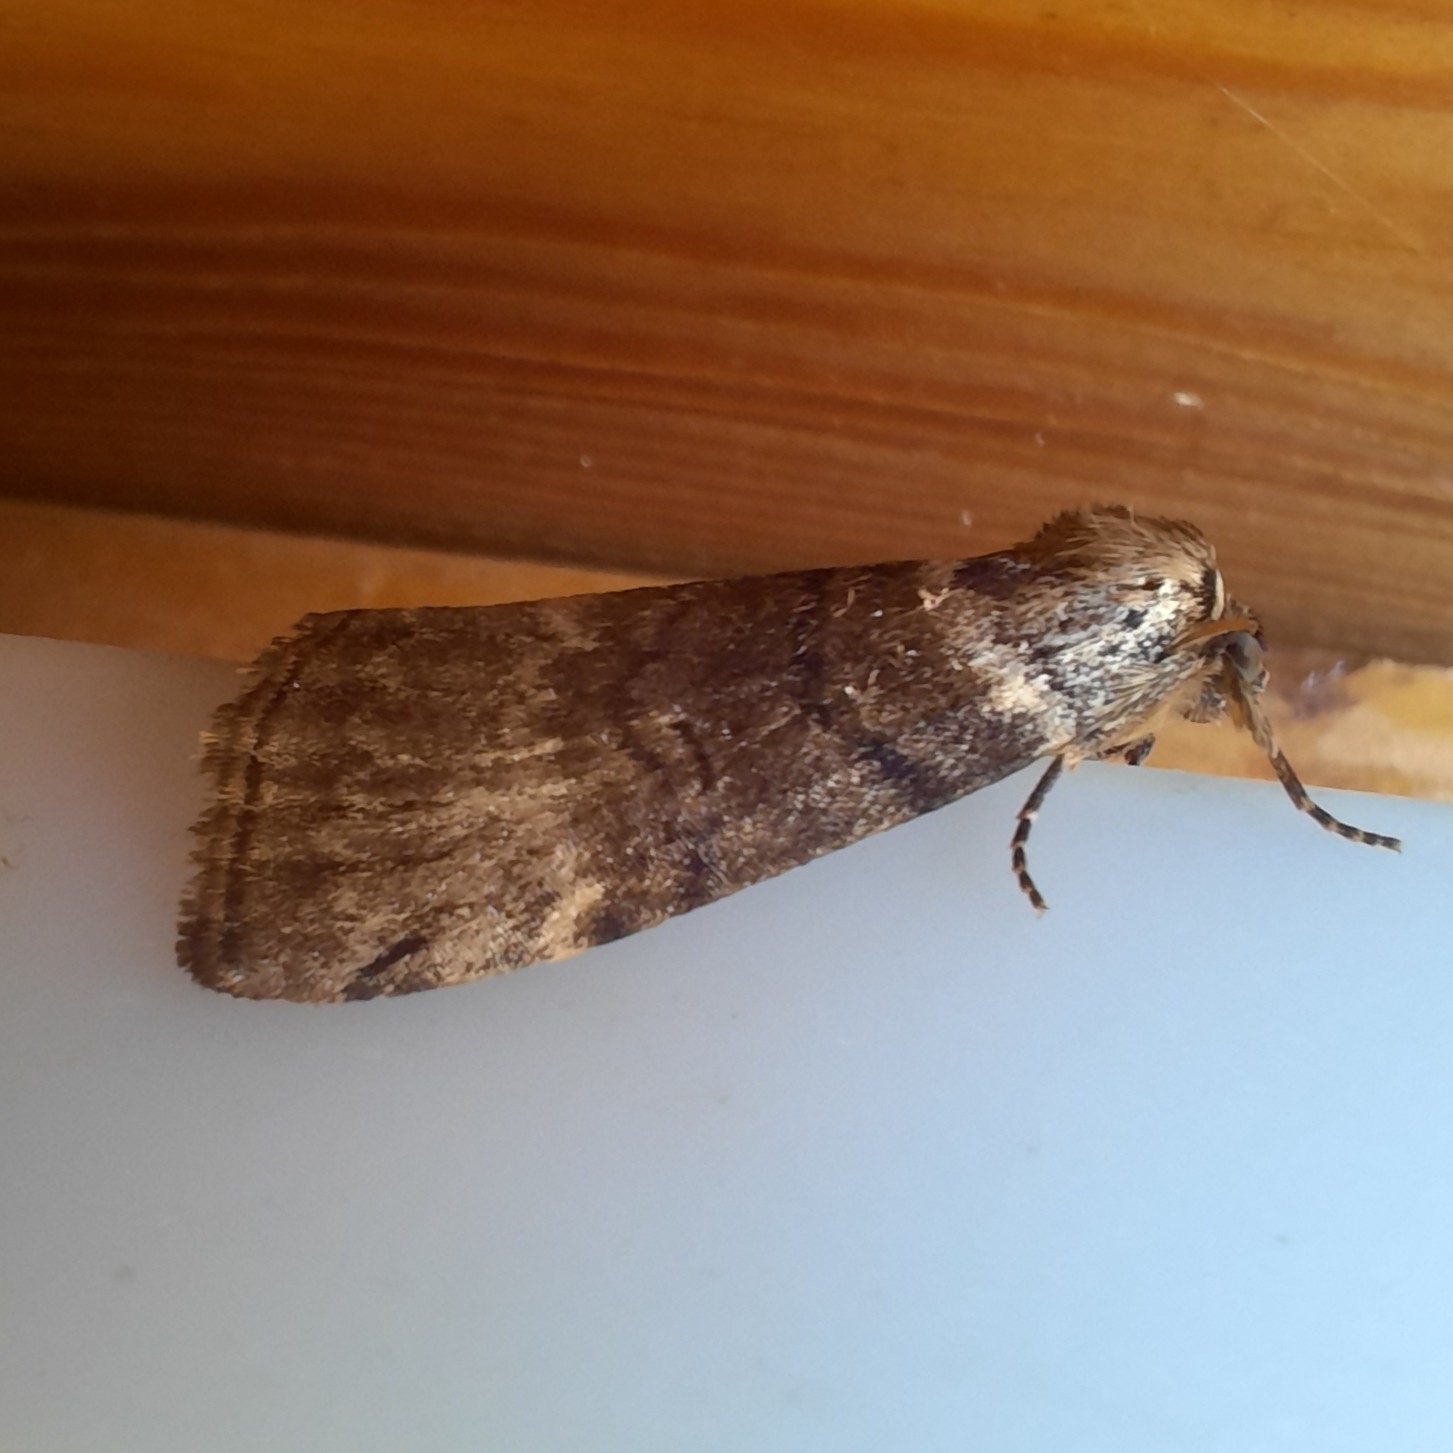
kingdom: Animalia
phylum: Arthropoda
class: Insecta
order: Lepidoptera
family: Drepanidae
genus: Tetheella
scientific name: Tetheella fluctuosa
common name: Satin lutestring
